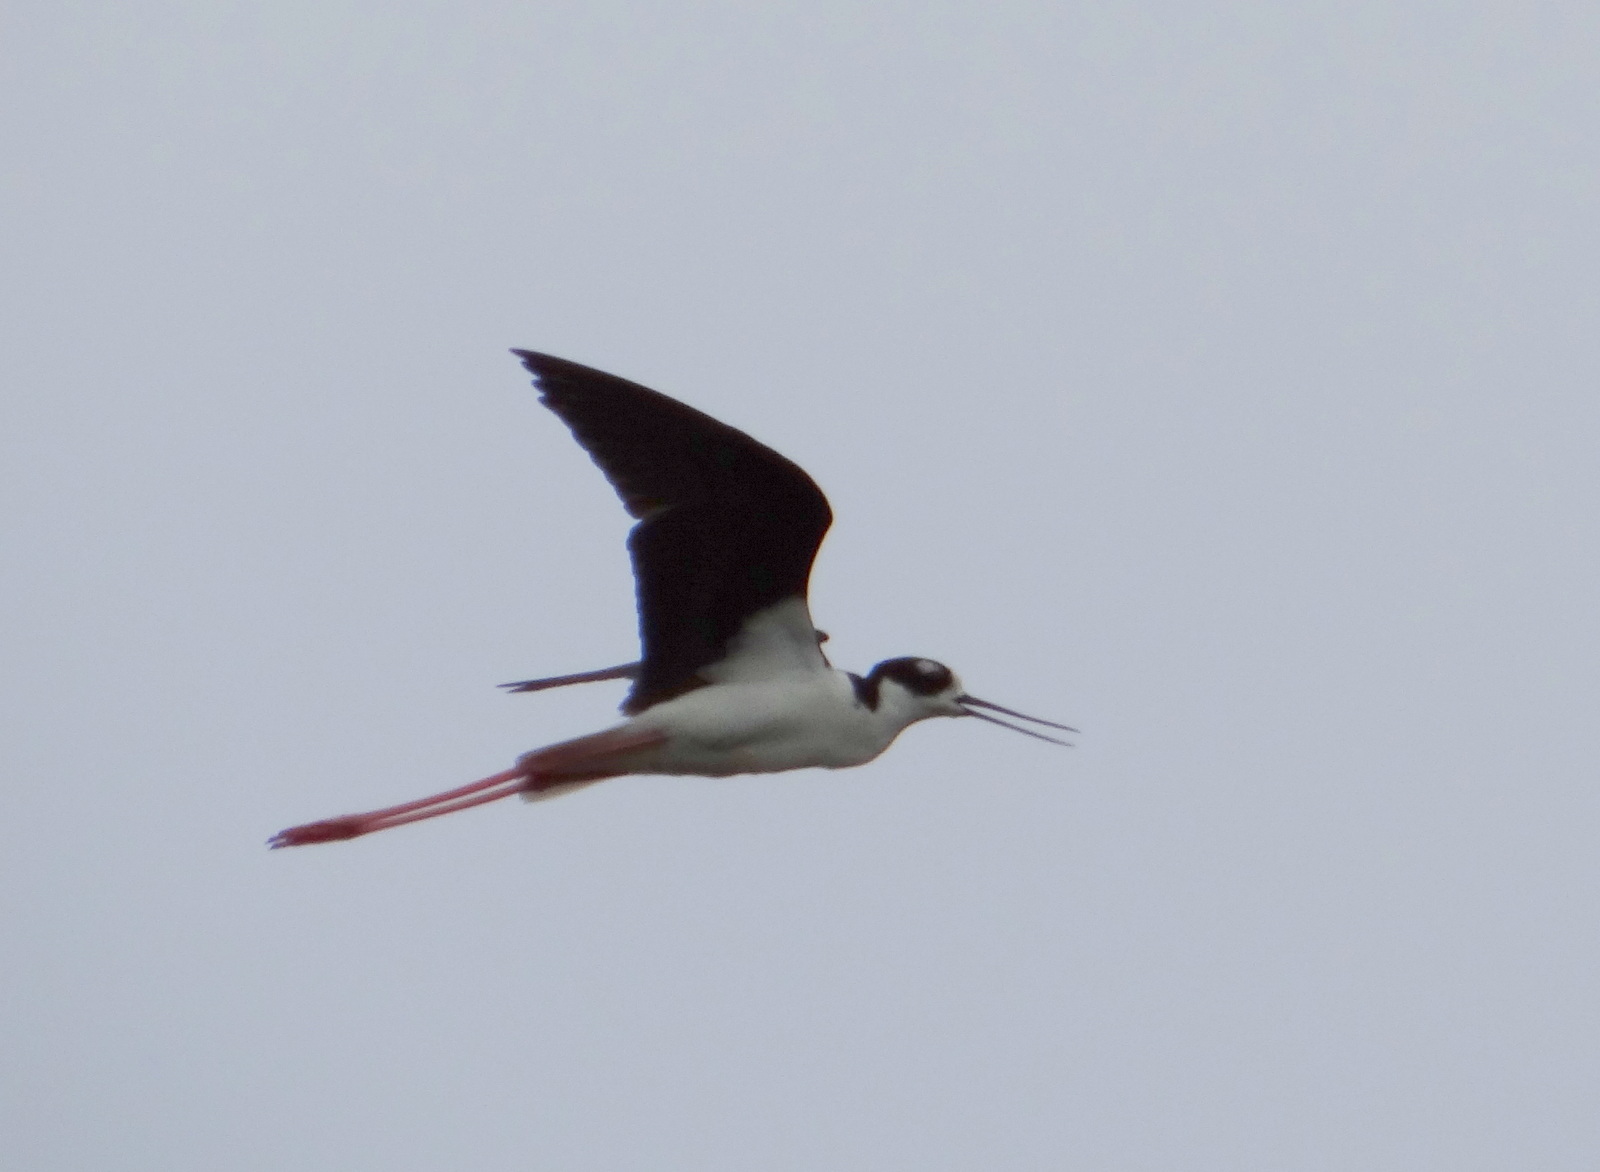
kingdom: Animalia
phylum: Chordata
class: Aves
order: Charadriiformes
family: Recurvirostridae
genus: Himantopus
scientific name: Himantopus mexicanus
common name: Black-necked stilt
